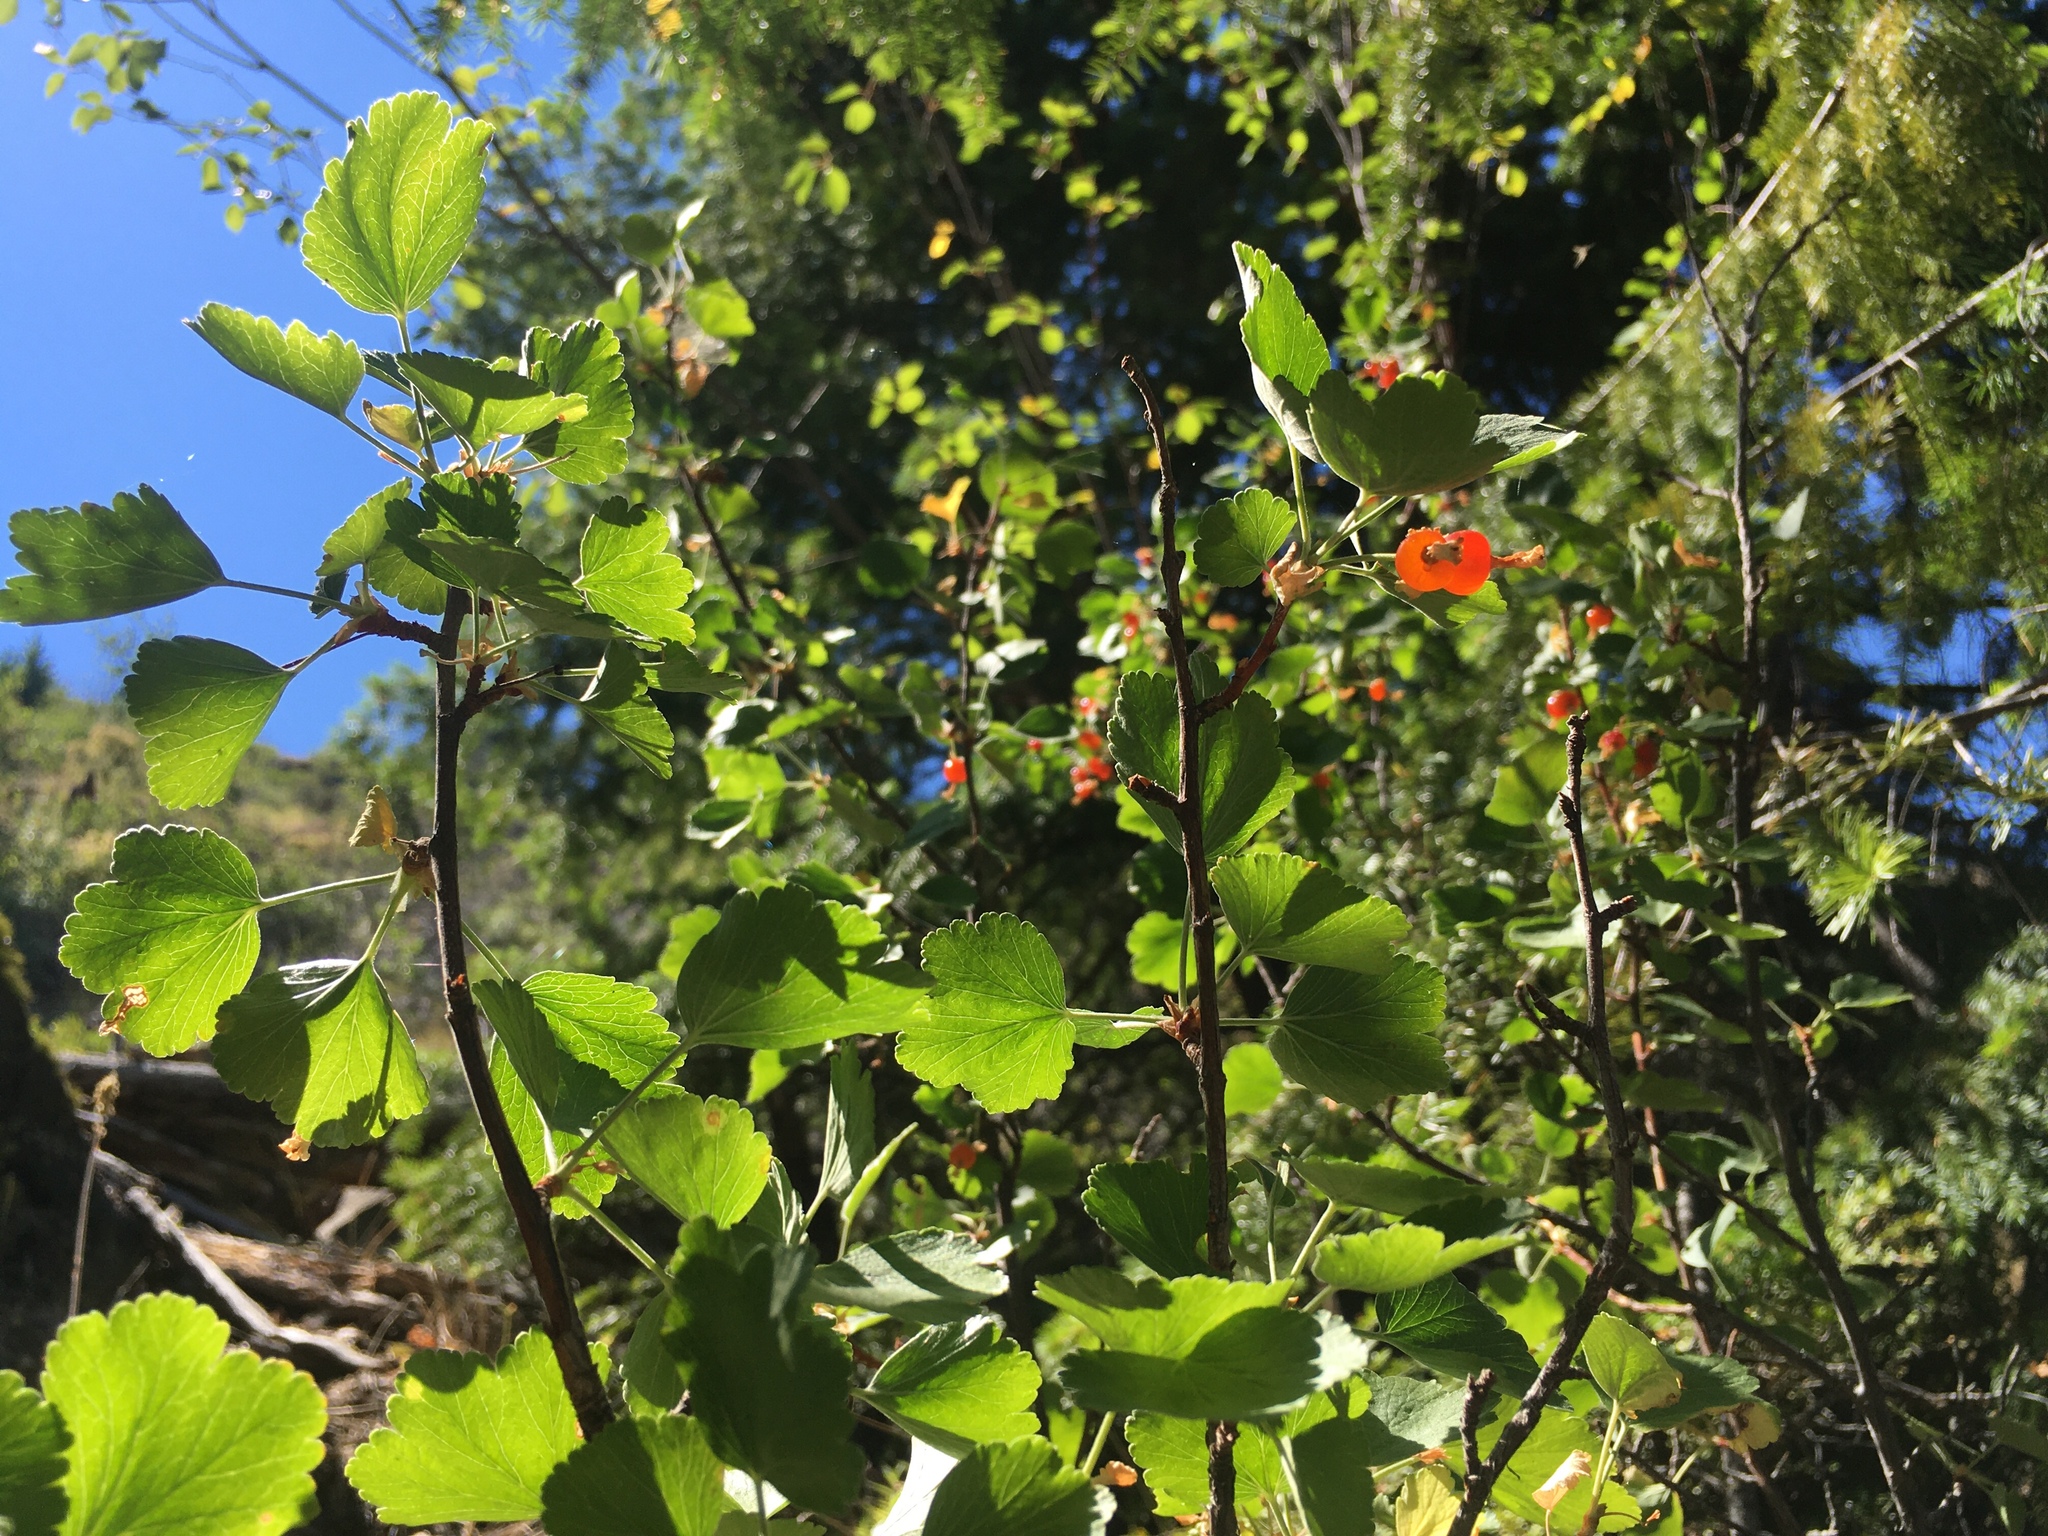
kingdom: Plantae
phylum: Tracheophyta
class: Magnoliopsida
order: Saxifragales
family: Grossulariaceae
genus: Ribes
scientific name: Ribes cereum
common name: Wax currant
